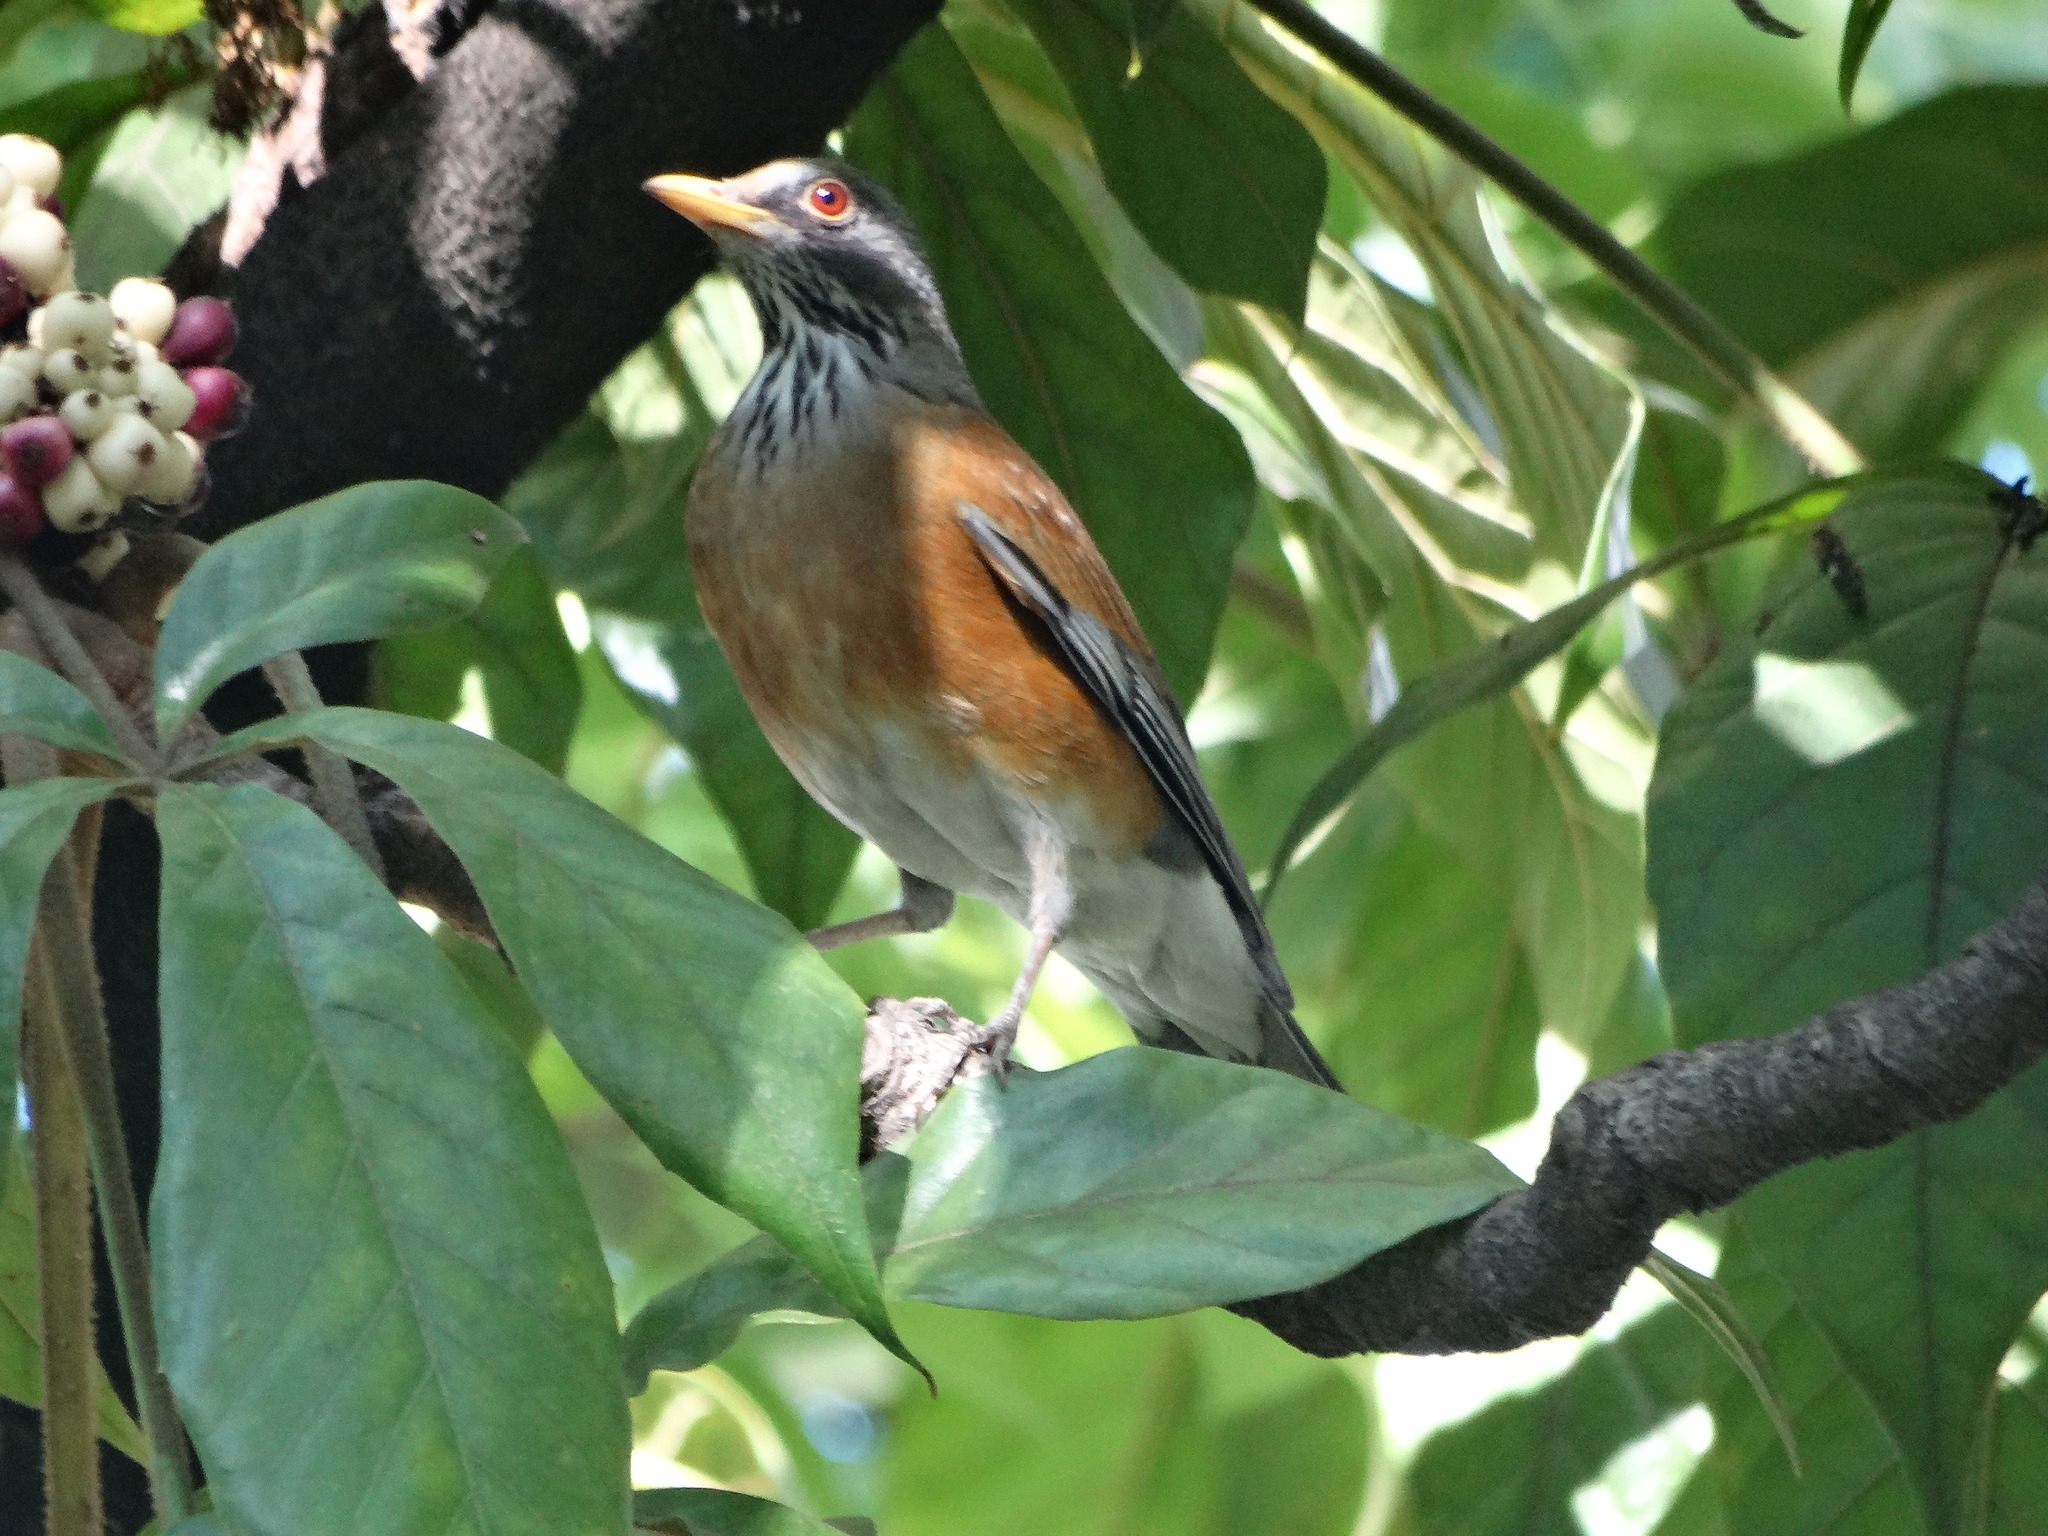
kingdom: Animalia
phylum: Chordata
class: Aves
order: Passeriformes
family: Turdidae
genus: Turdus
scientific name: Turdus rufopalliatus
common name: Rufous-backed robin
